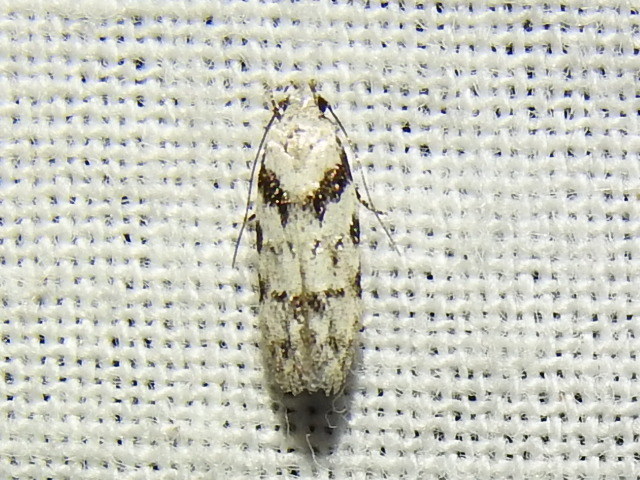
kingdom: Animalia
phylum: Arthropoda
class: Insecta
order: Lepidoptera
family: Gelechiidae
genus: Pseudotelphusa
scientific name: Pseudotelphusa palliderosacella
